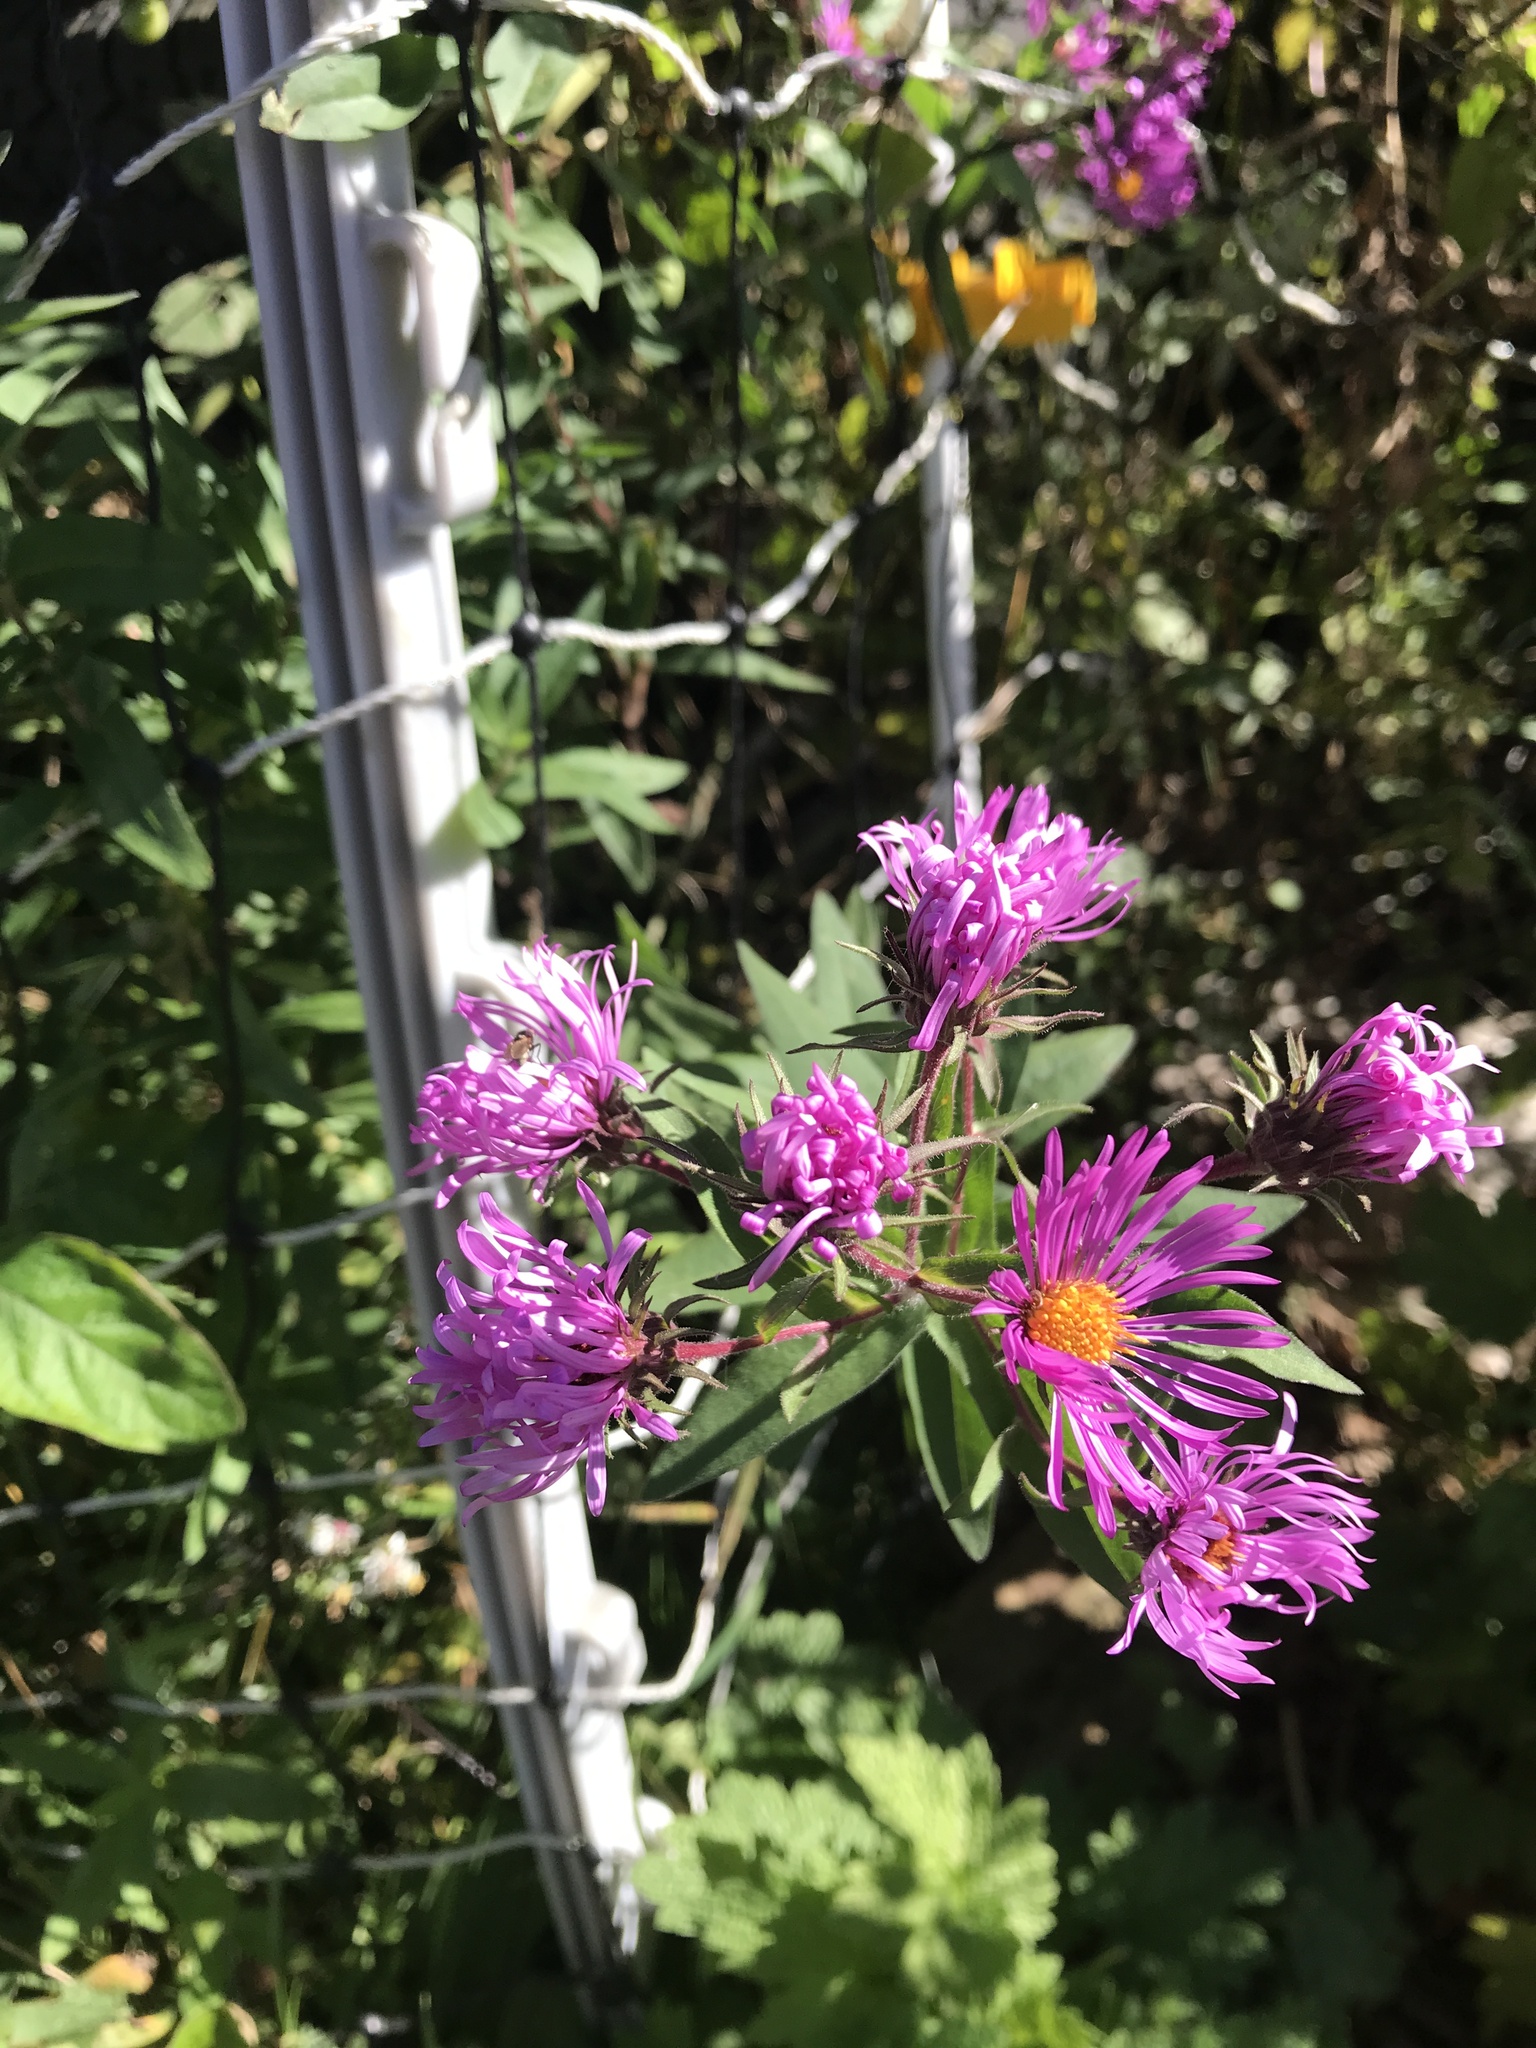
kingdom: Plantae
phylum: Tracheophyta
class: Magnoliopsida
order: Asterales
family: Asteraceae
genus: Symphyotrichum
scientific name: Symphyotrichum novae-angliae
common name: Michaelmas daisy
